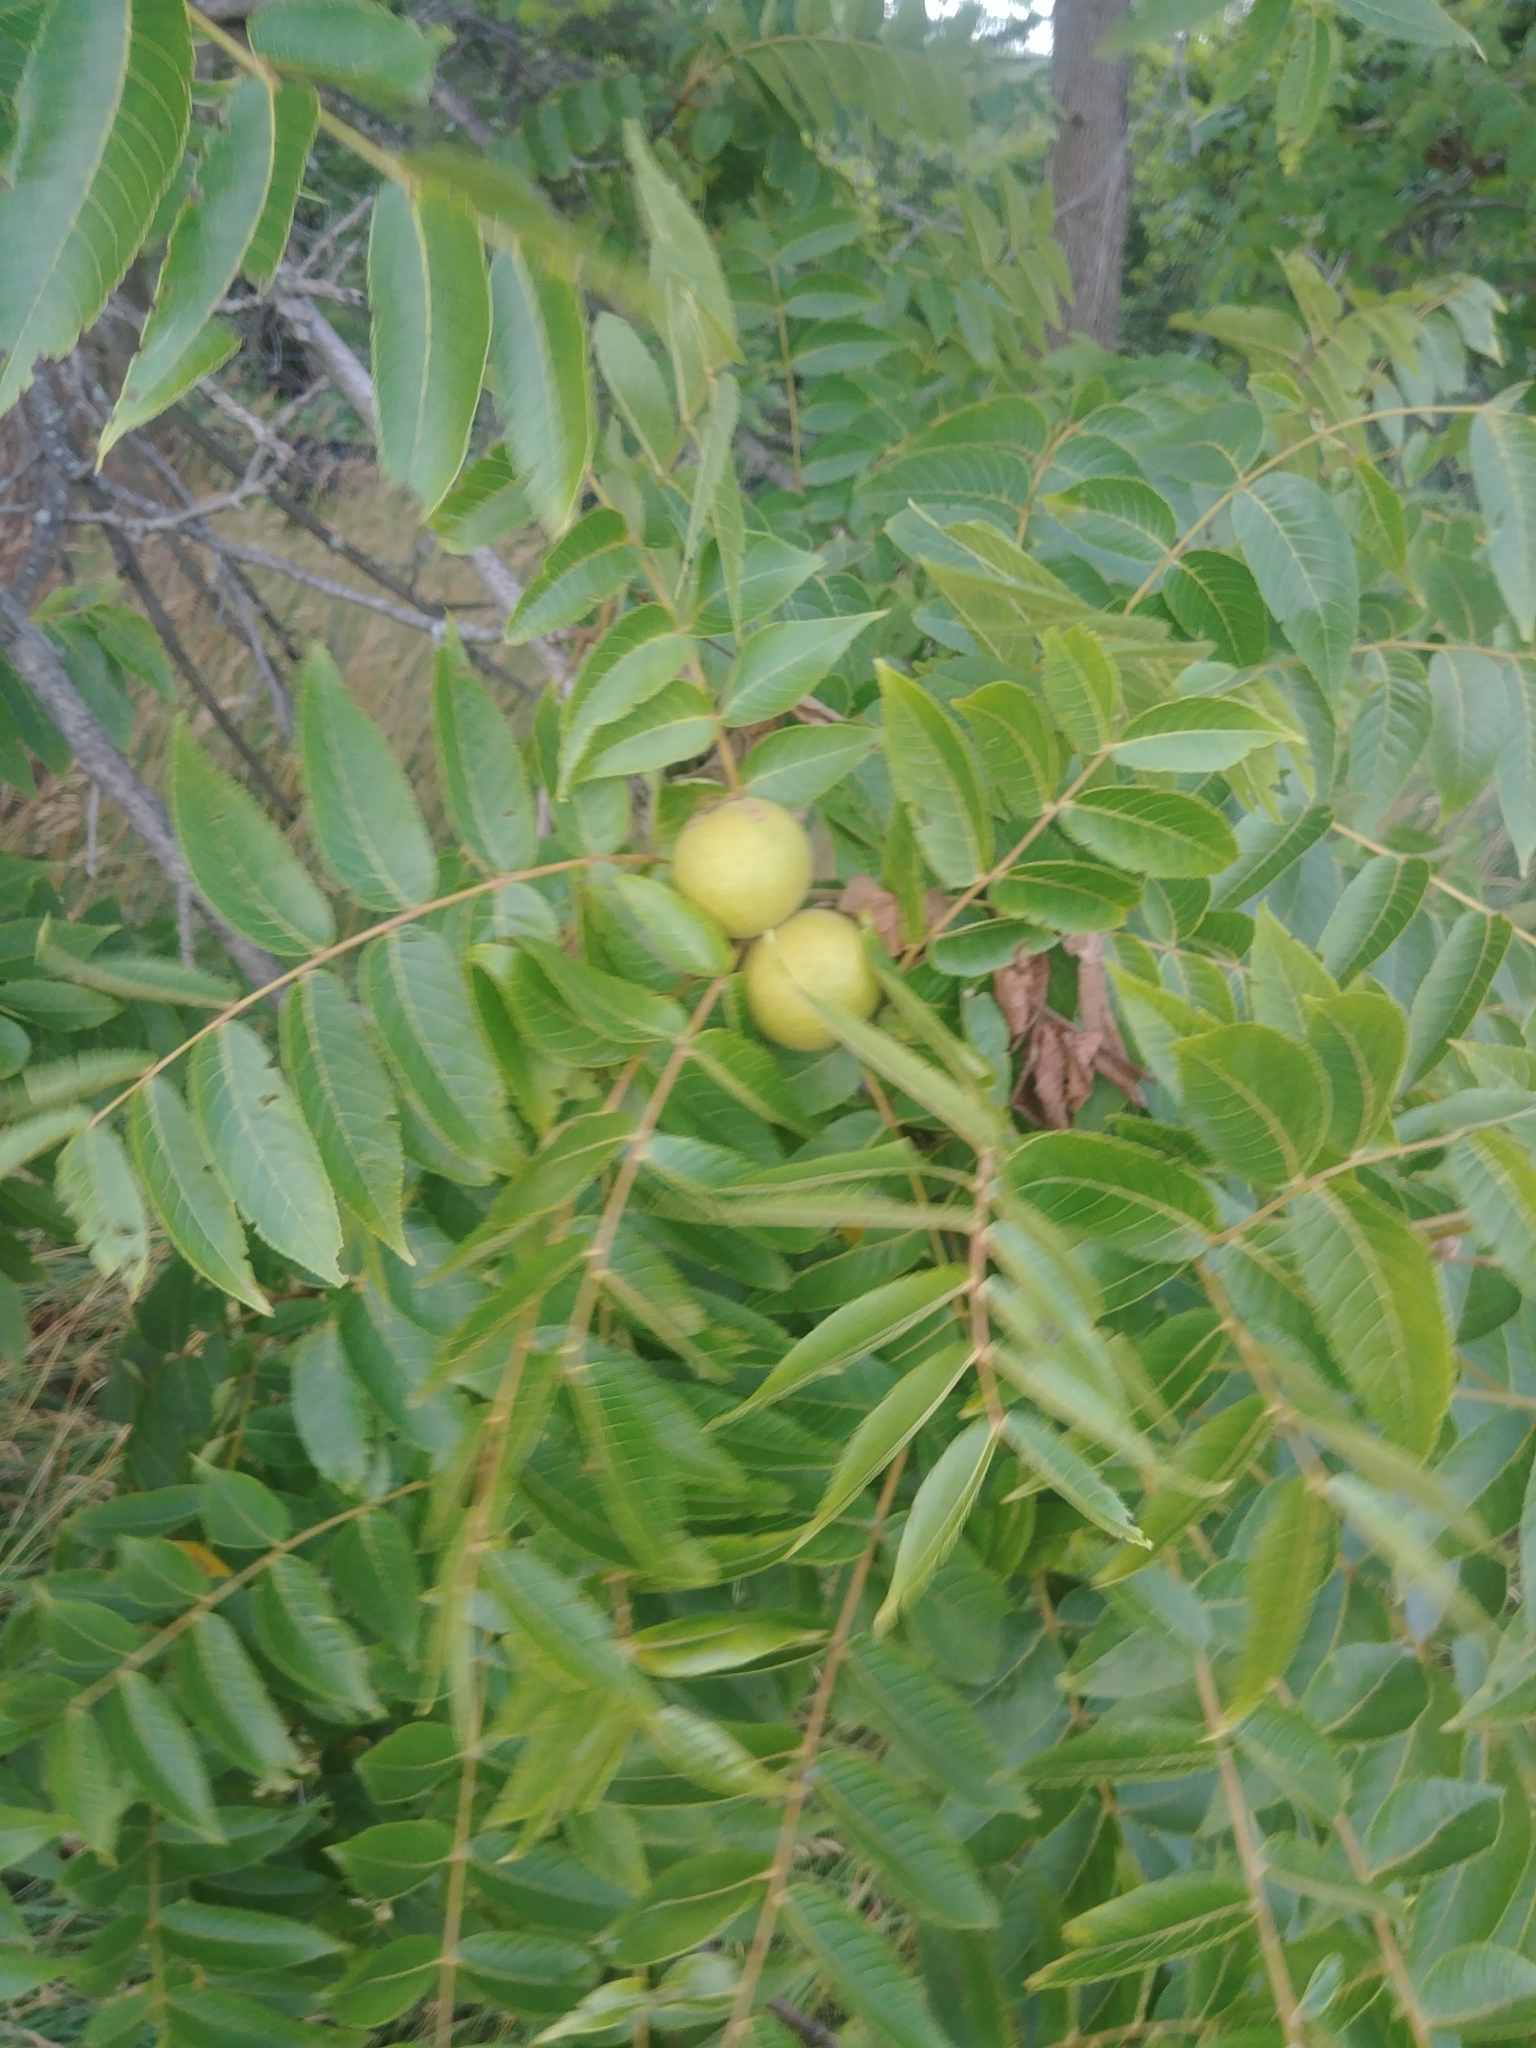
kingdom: Plantae
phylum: Tracheophyta
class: Magnoliopsida
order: Fagales
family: Juglandaceae
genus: Juglans
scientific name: Juglans nigra
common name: Black walnut
